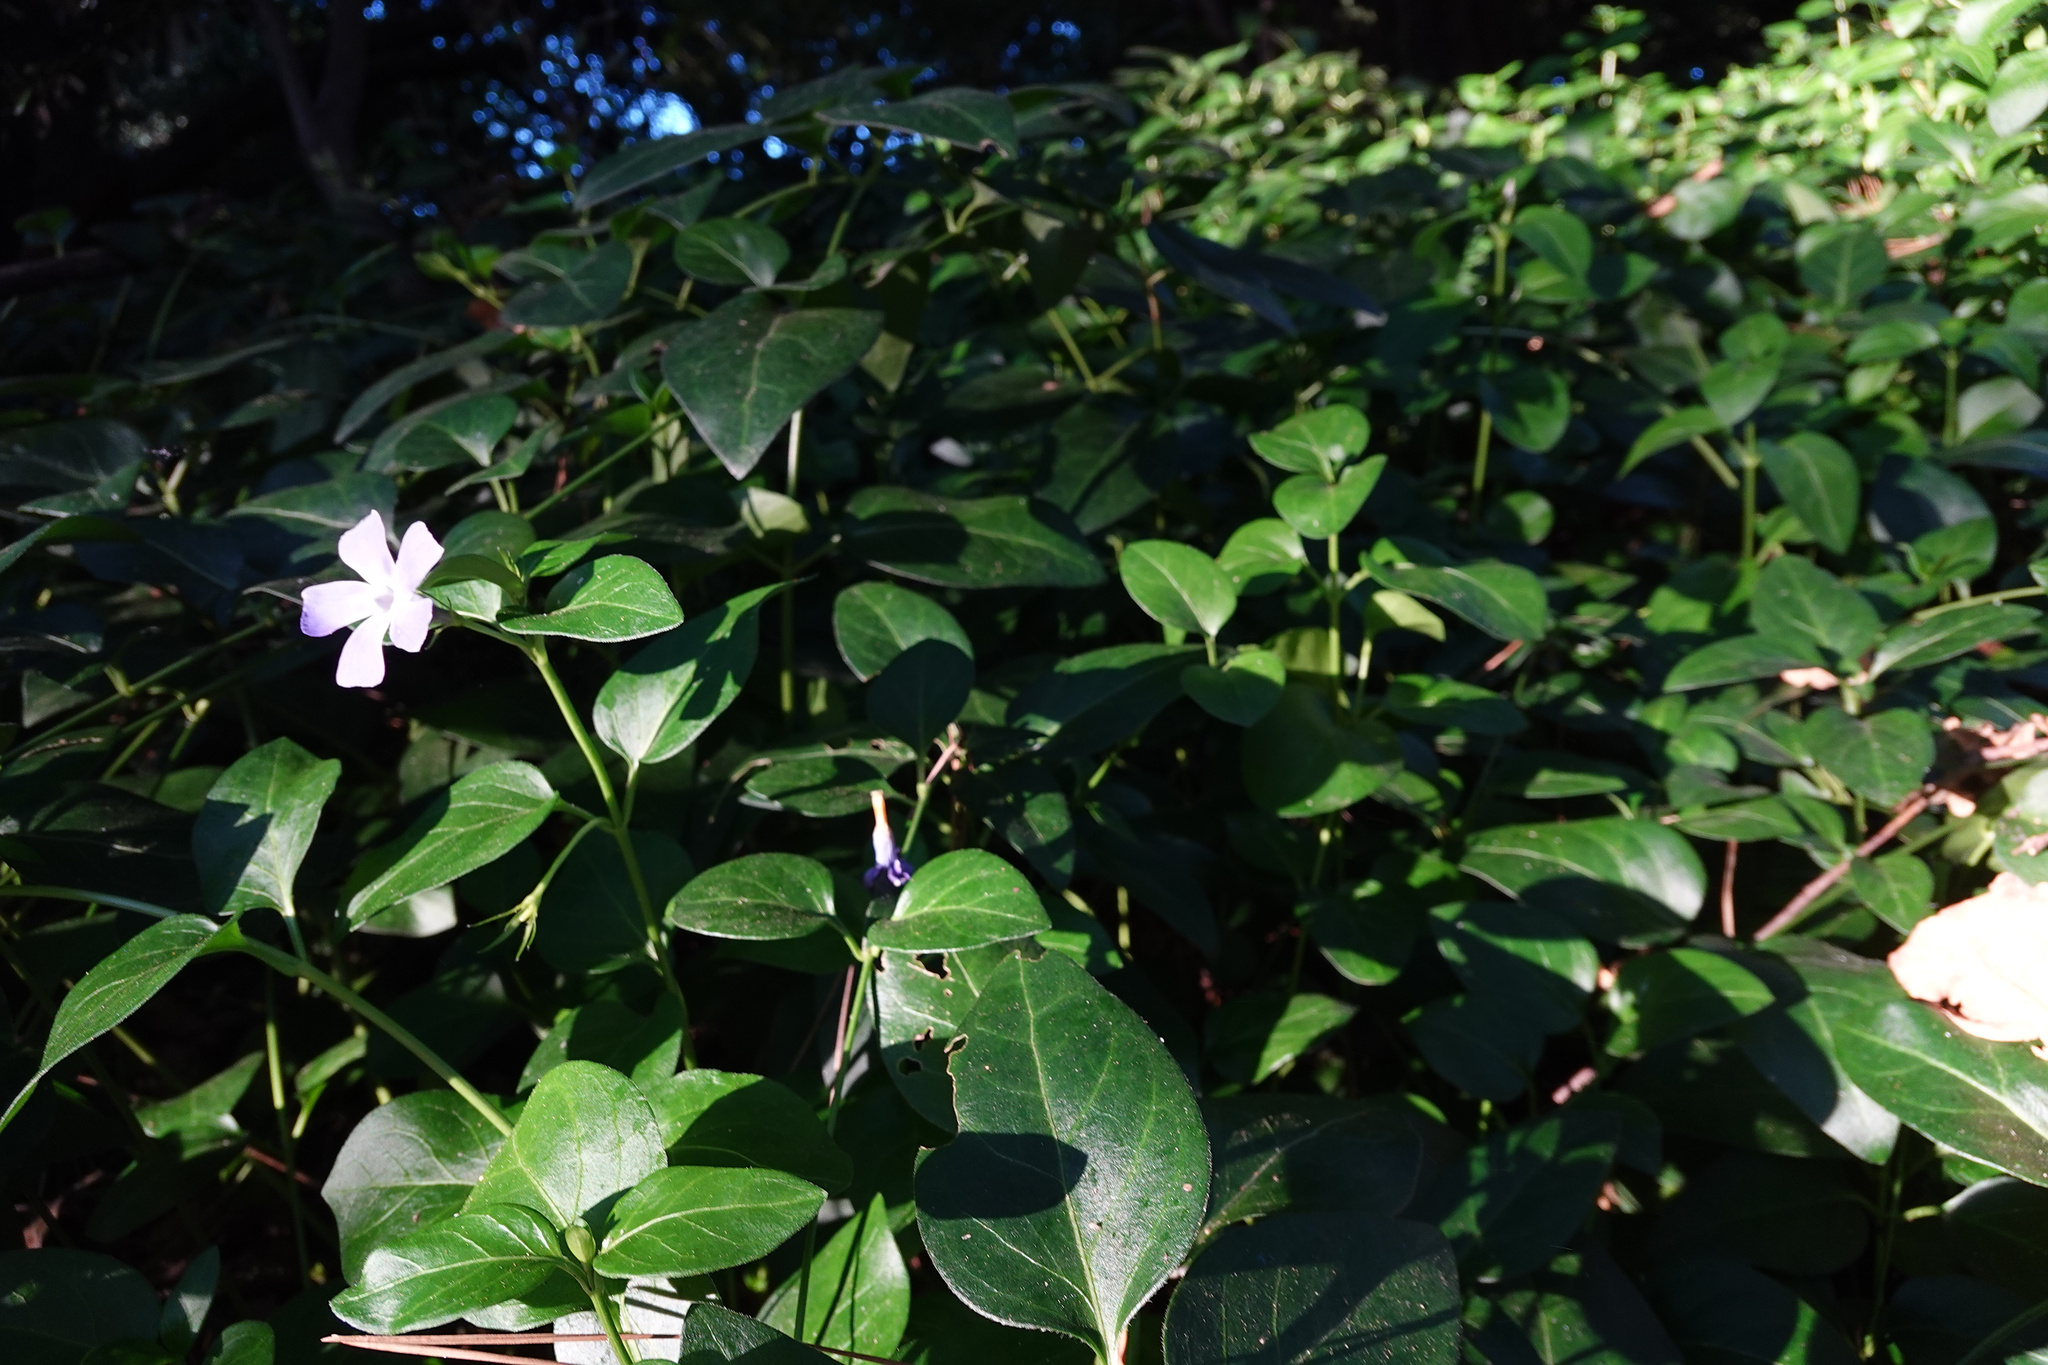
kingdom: Plantae
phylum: Tracheophyta
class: Magnoliopsida
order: Gentianales
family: Apocynaceae
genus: Vinca
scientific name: Vinca major
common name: Greater periwinkle
